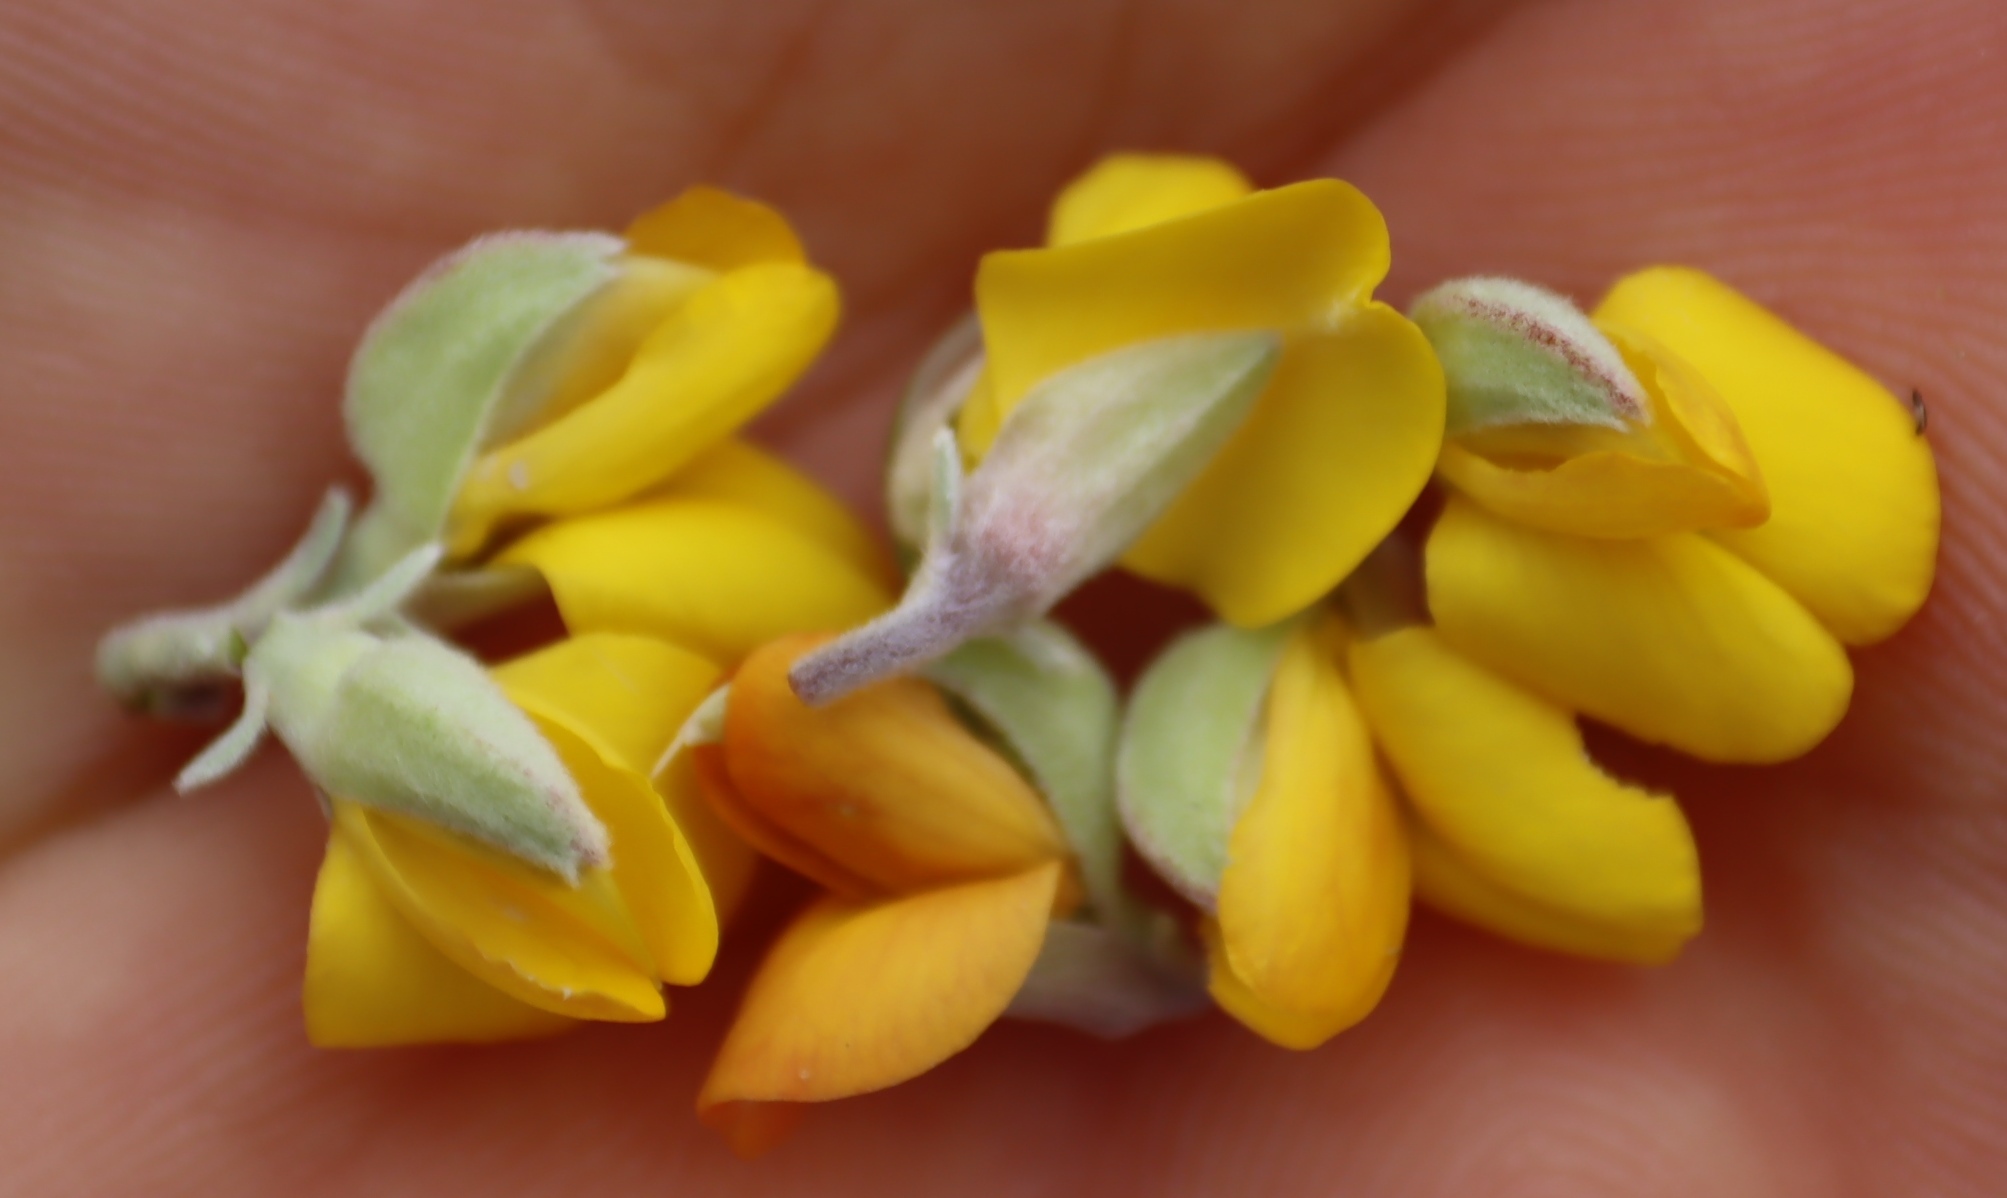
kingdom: Plantae
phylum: Tracheophyta
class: Magnoliopsida
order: Fabales
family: Fabaceae
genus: Argyrolobium
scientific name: Argyrolobium incanum
